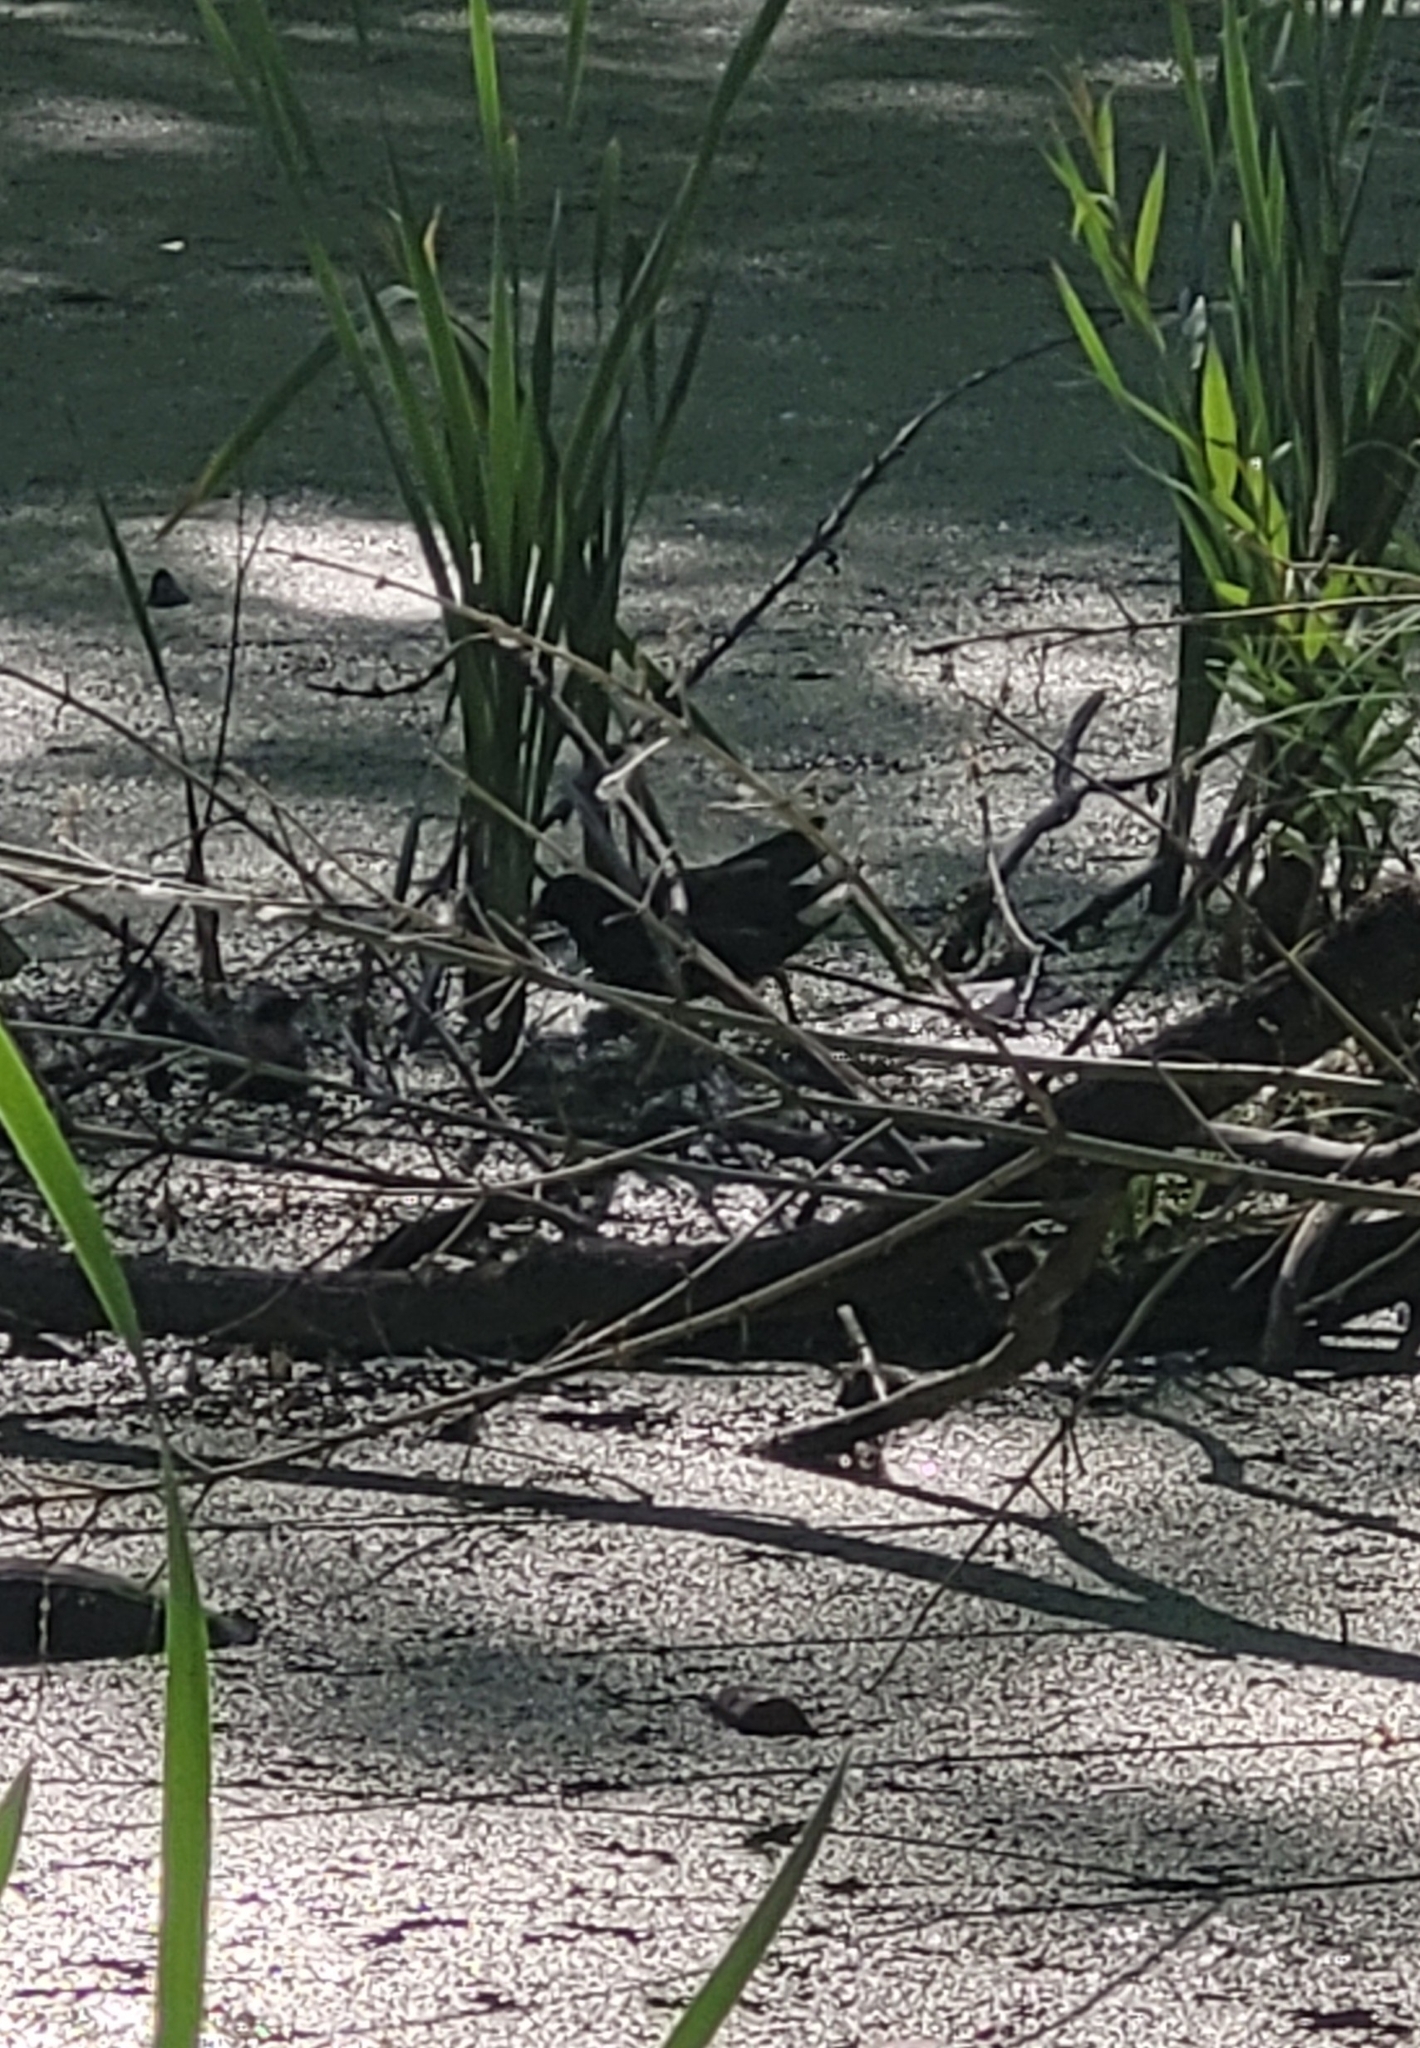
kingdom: Animalia
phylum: Chordata
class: Aves
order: Gruiformes
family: Rallidae
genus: Gallinula
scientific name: Gallinula chloropus
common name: Common moorhen
